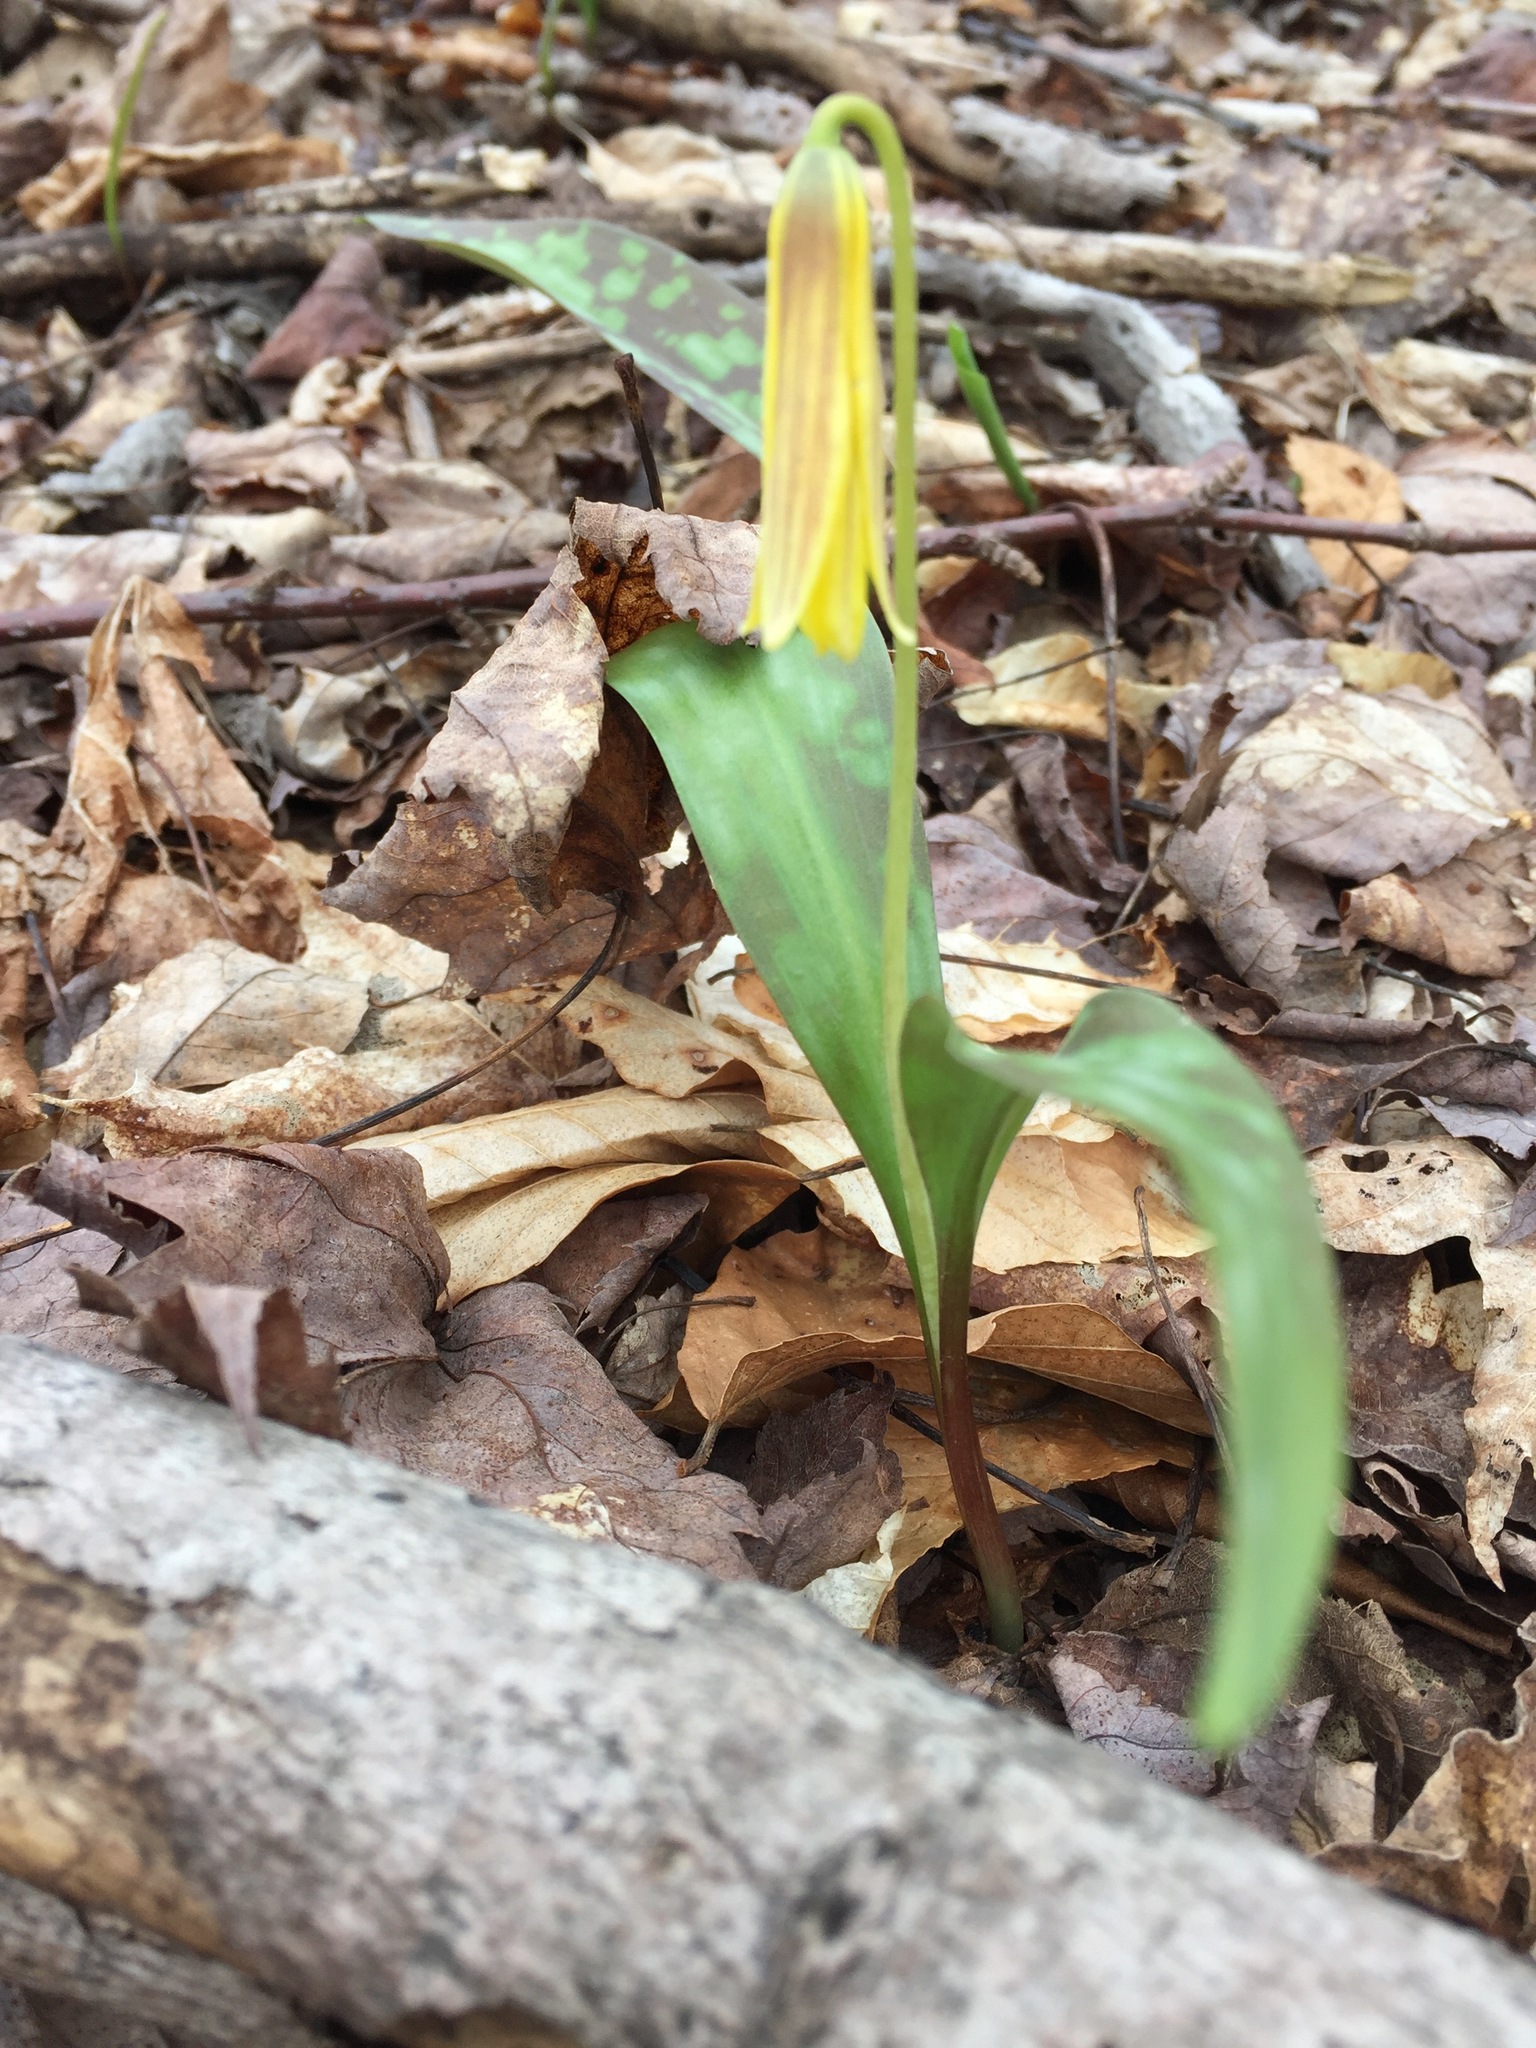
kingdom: Plantae
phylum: Tracheophyta
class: Liliopsida
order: Liliales
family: Liliaceae
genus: Erythronium
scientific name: Erythronium americanum
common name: Yellow adder's-tongue
